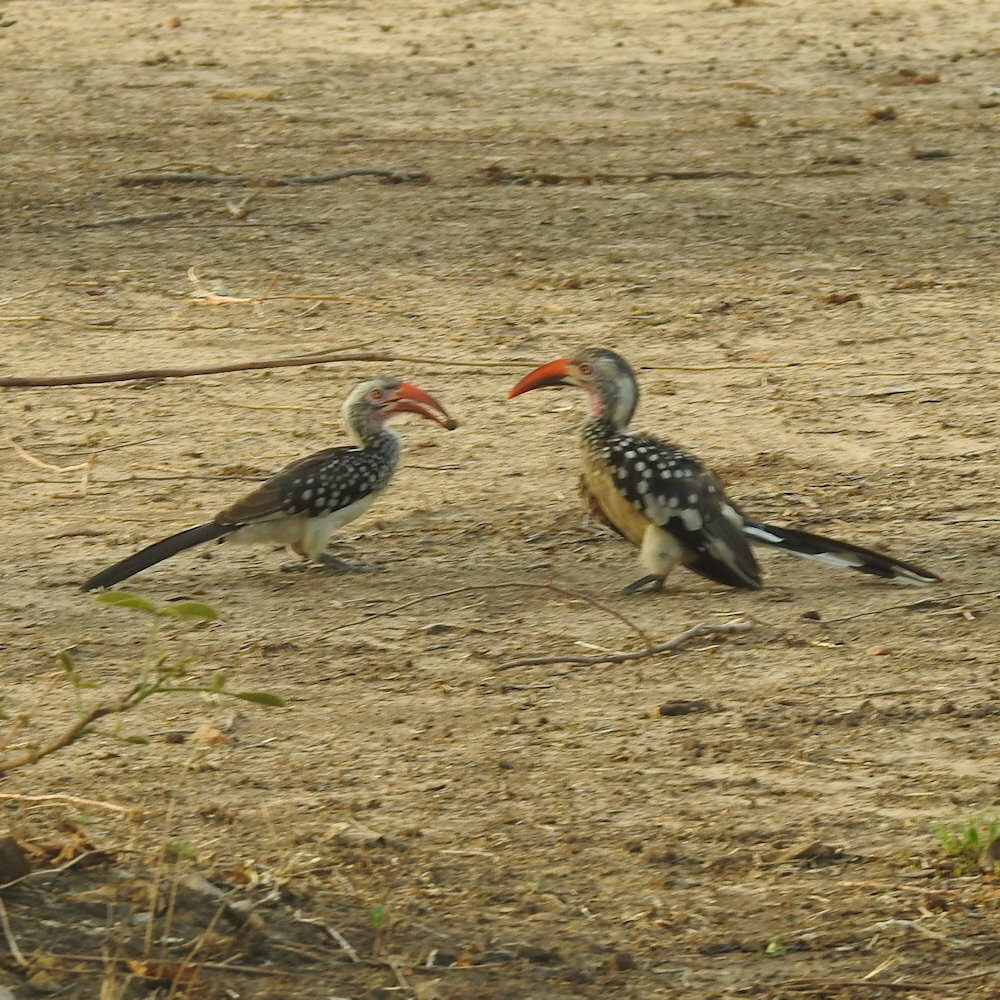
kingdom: Animalia
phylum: Chordata
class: Aves
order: Bucerotiformes
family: Bucerotidae
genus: Tockus
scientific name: Tockus rufirostris
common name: Southern red-billed hornbill
